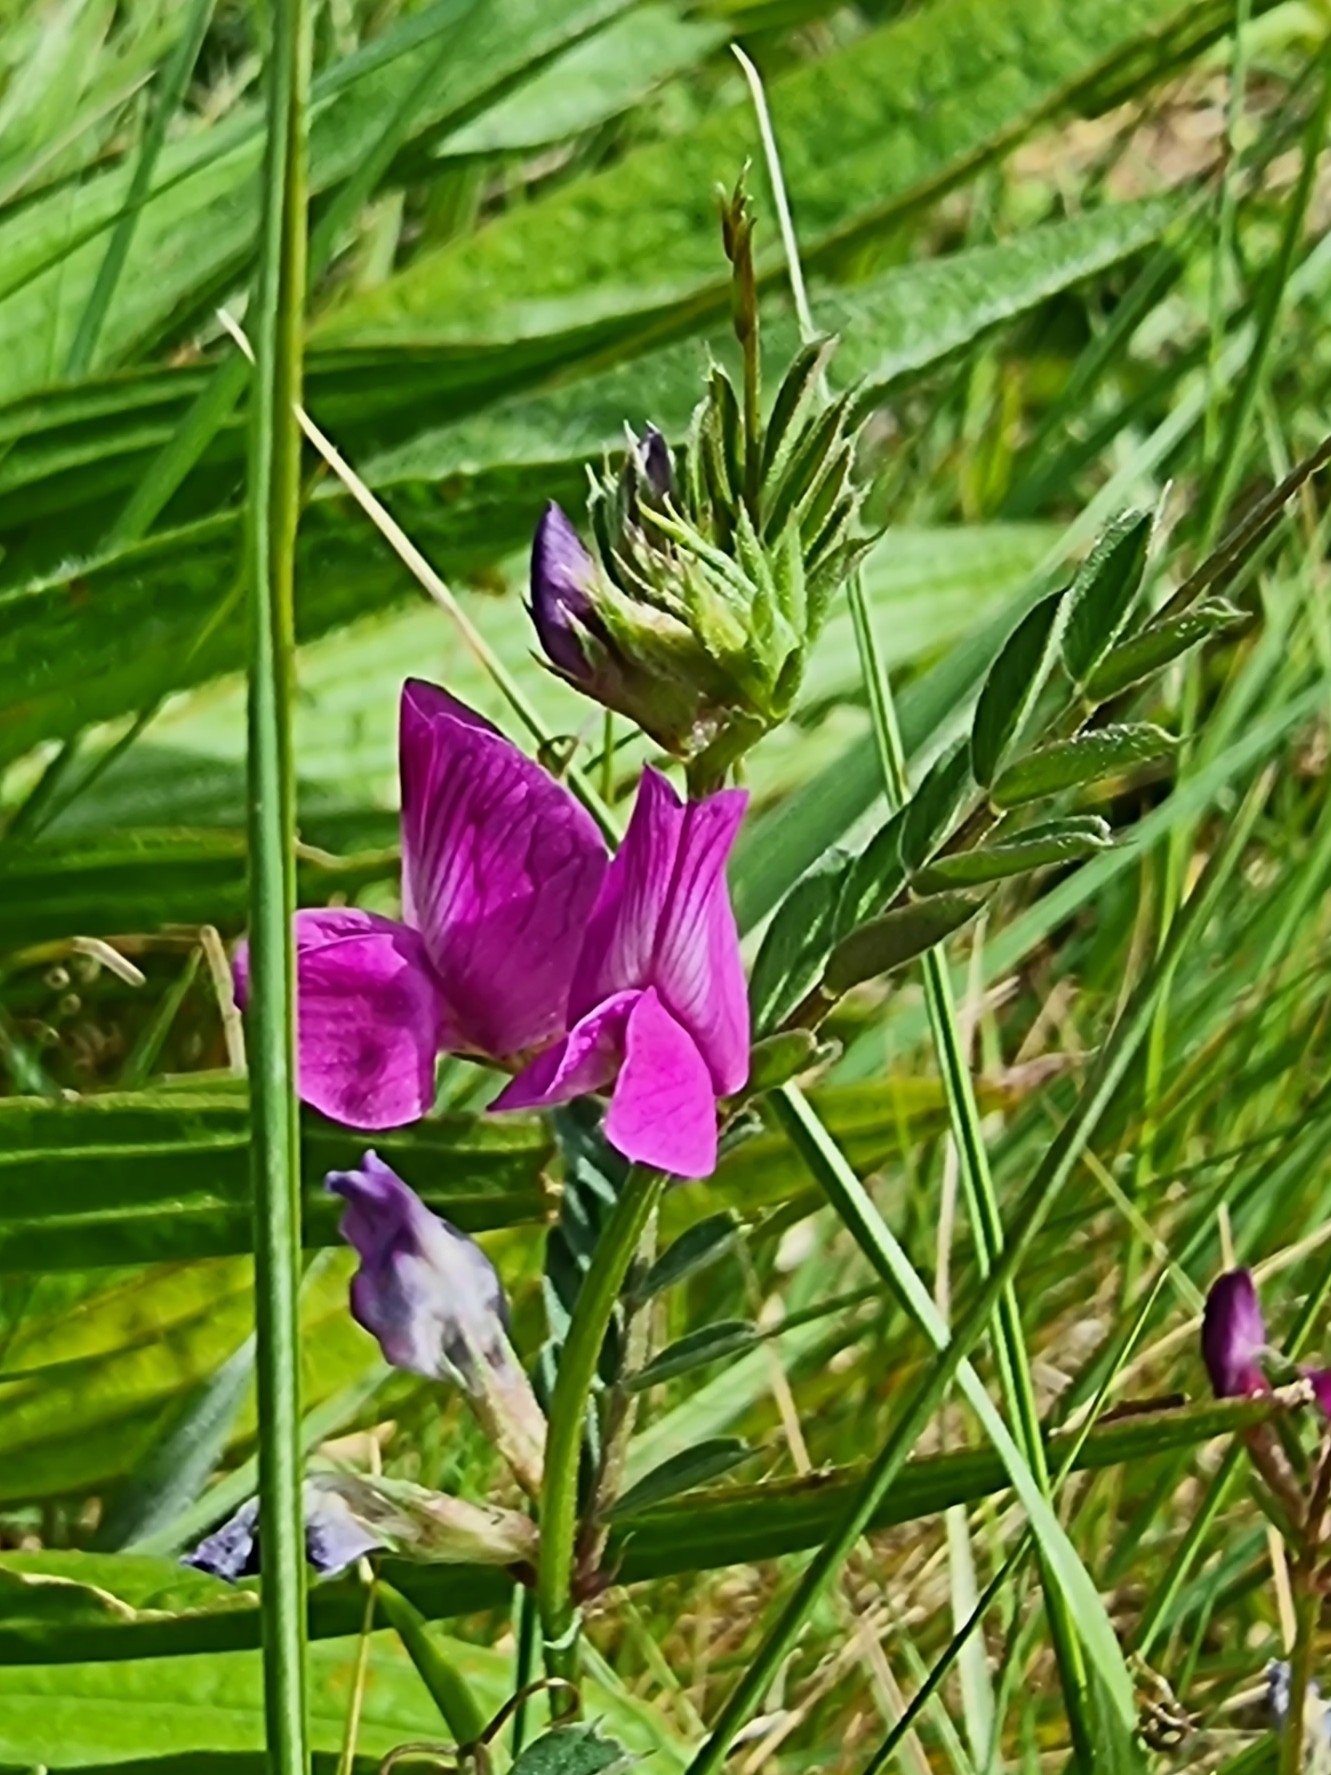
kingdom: Plantae
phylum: Tracheophyta
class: Magnoliopsida
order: Fabales
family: Fabaceae
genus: Vicia
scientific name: Vicia sativa
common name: Garden vetch
